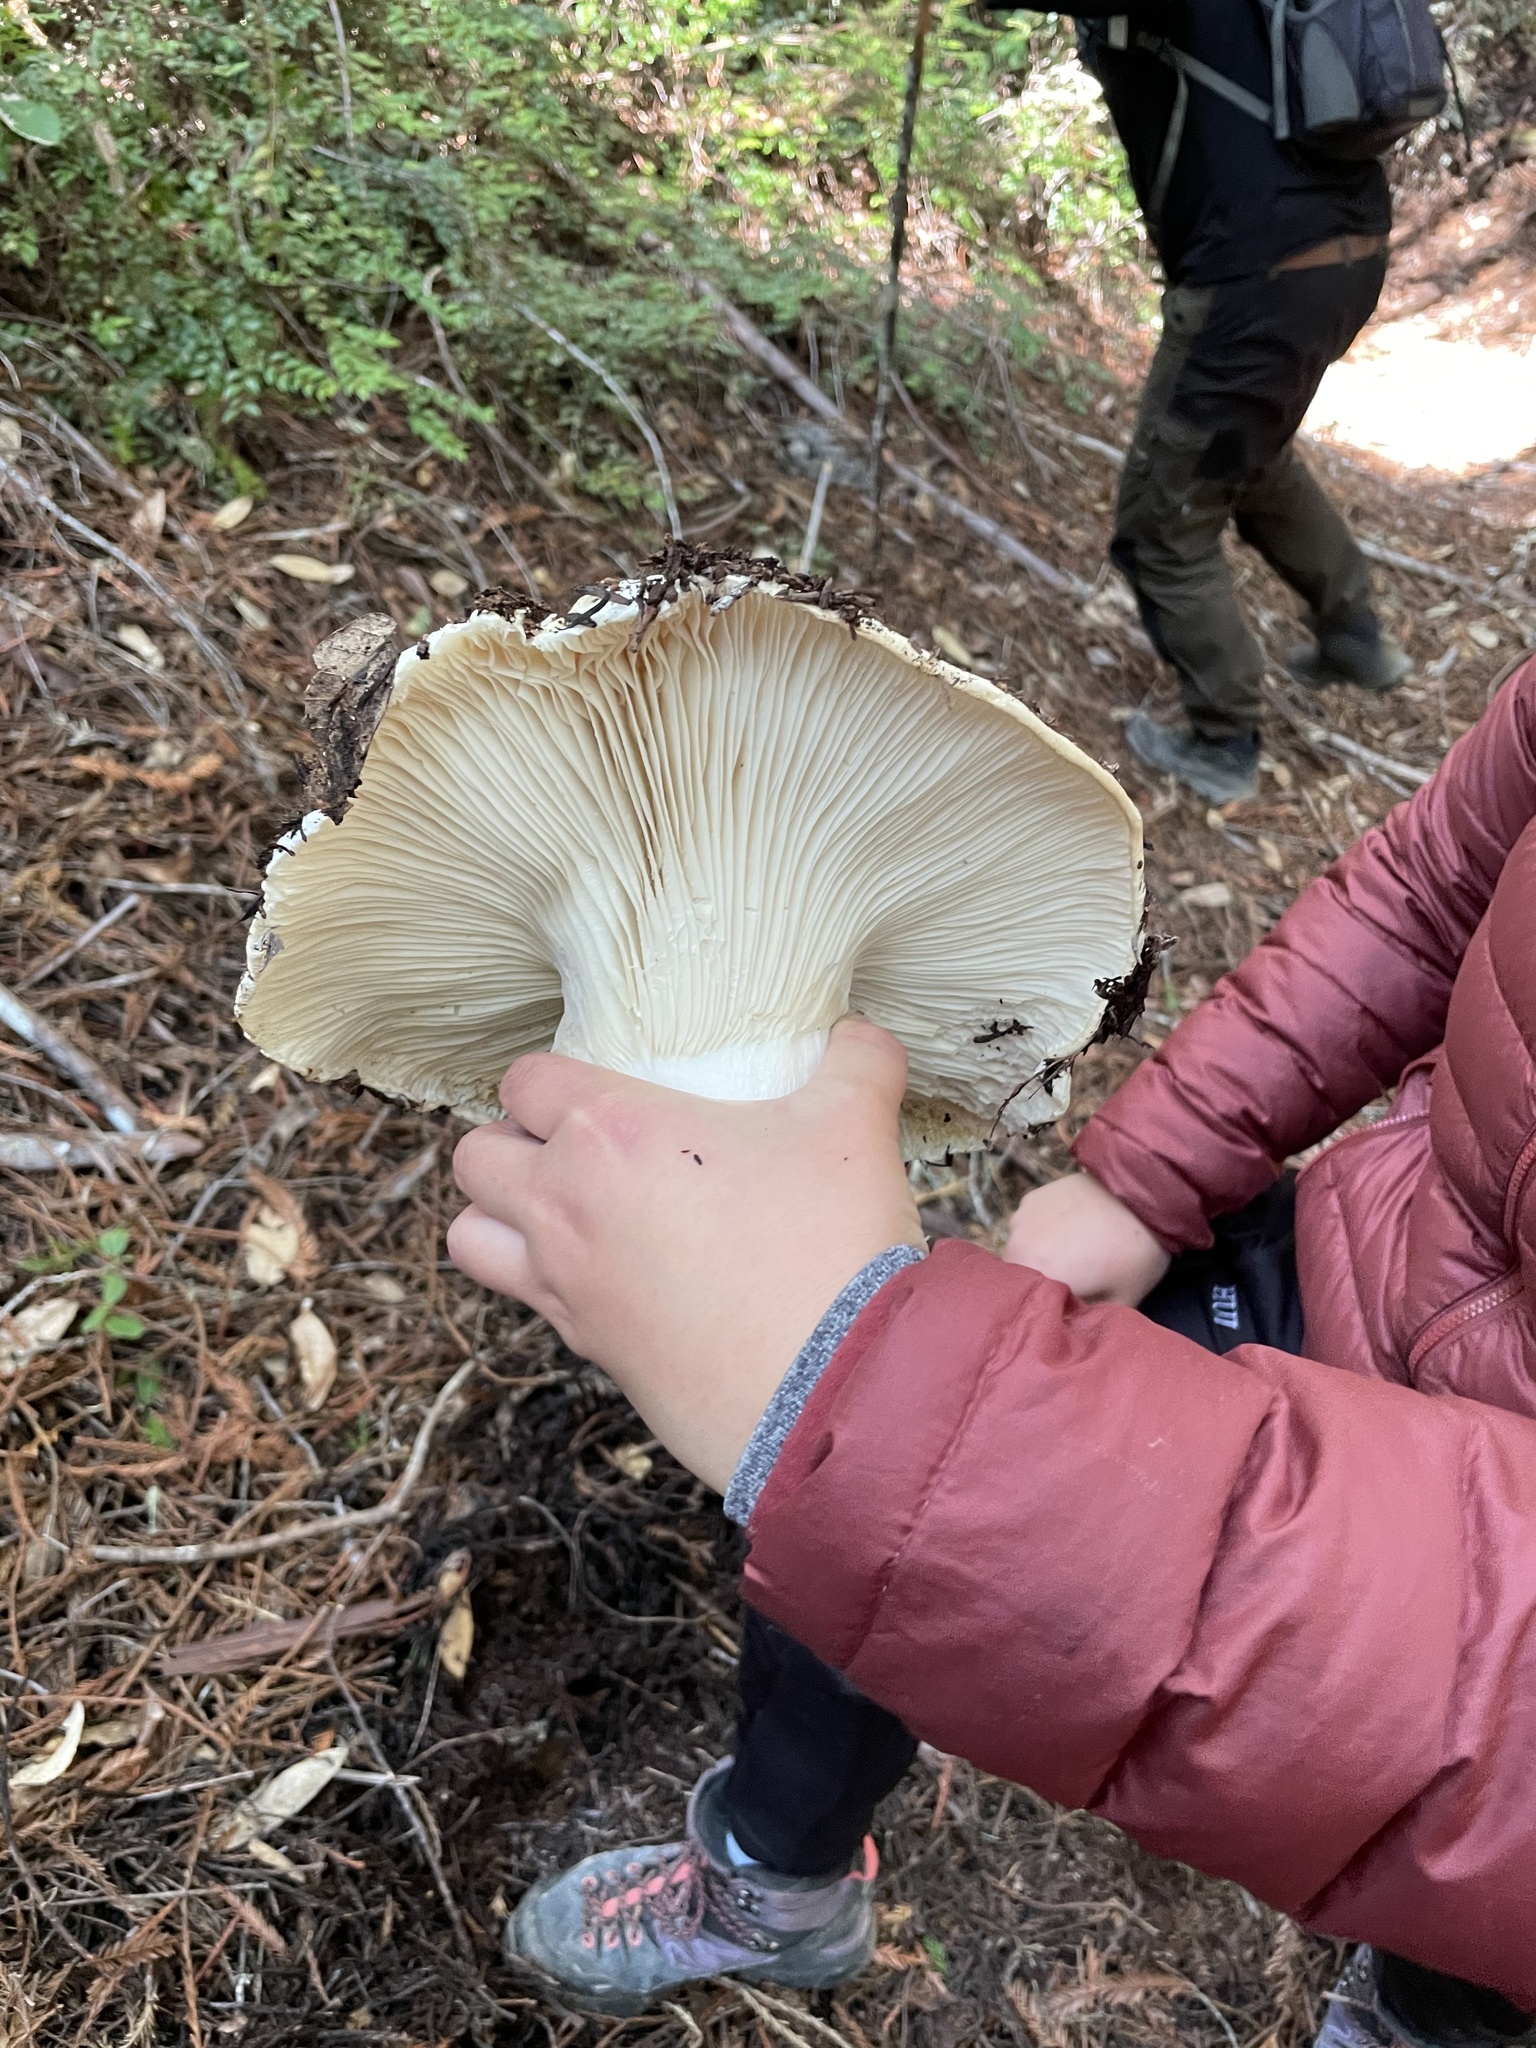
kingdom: Fungi
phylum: Basidiomycota
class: Agaricomycetes
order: Russulales
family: Russulaceae
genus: Russula
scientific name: Russula brevipes
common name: Short-stemmed russula
